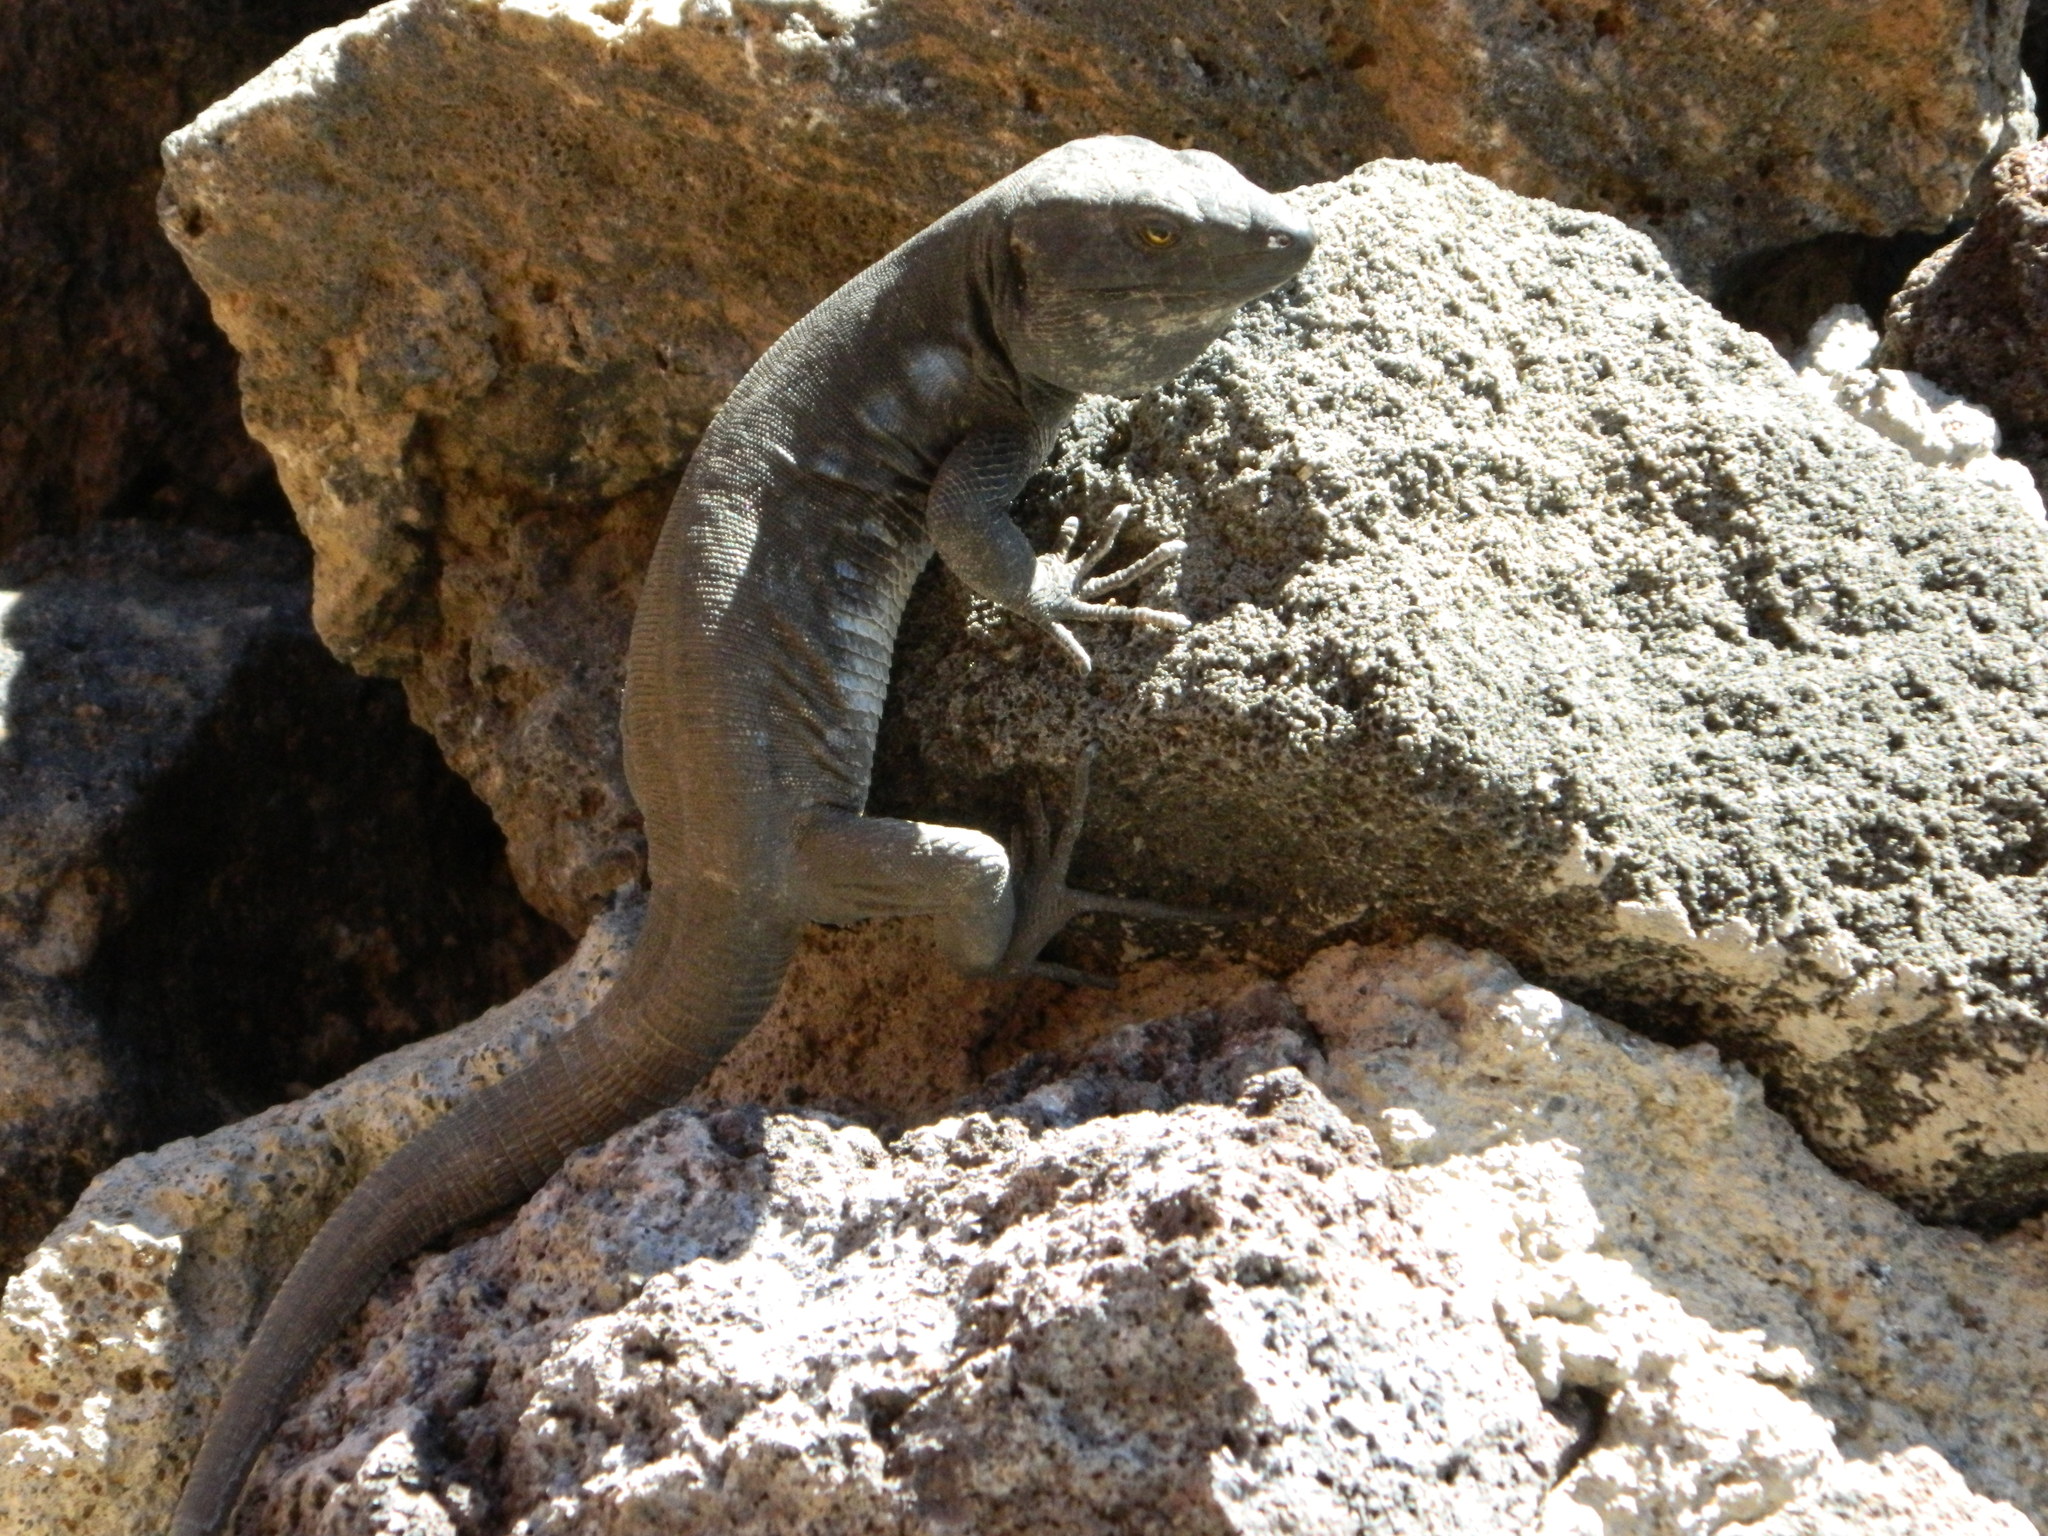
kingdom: Animalia
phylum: Chordata
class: Squamata
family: Lacertidae
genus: Gallotia
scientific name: Gallotia galloti
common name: Gallot's lizard
